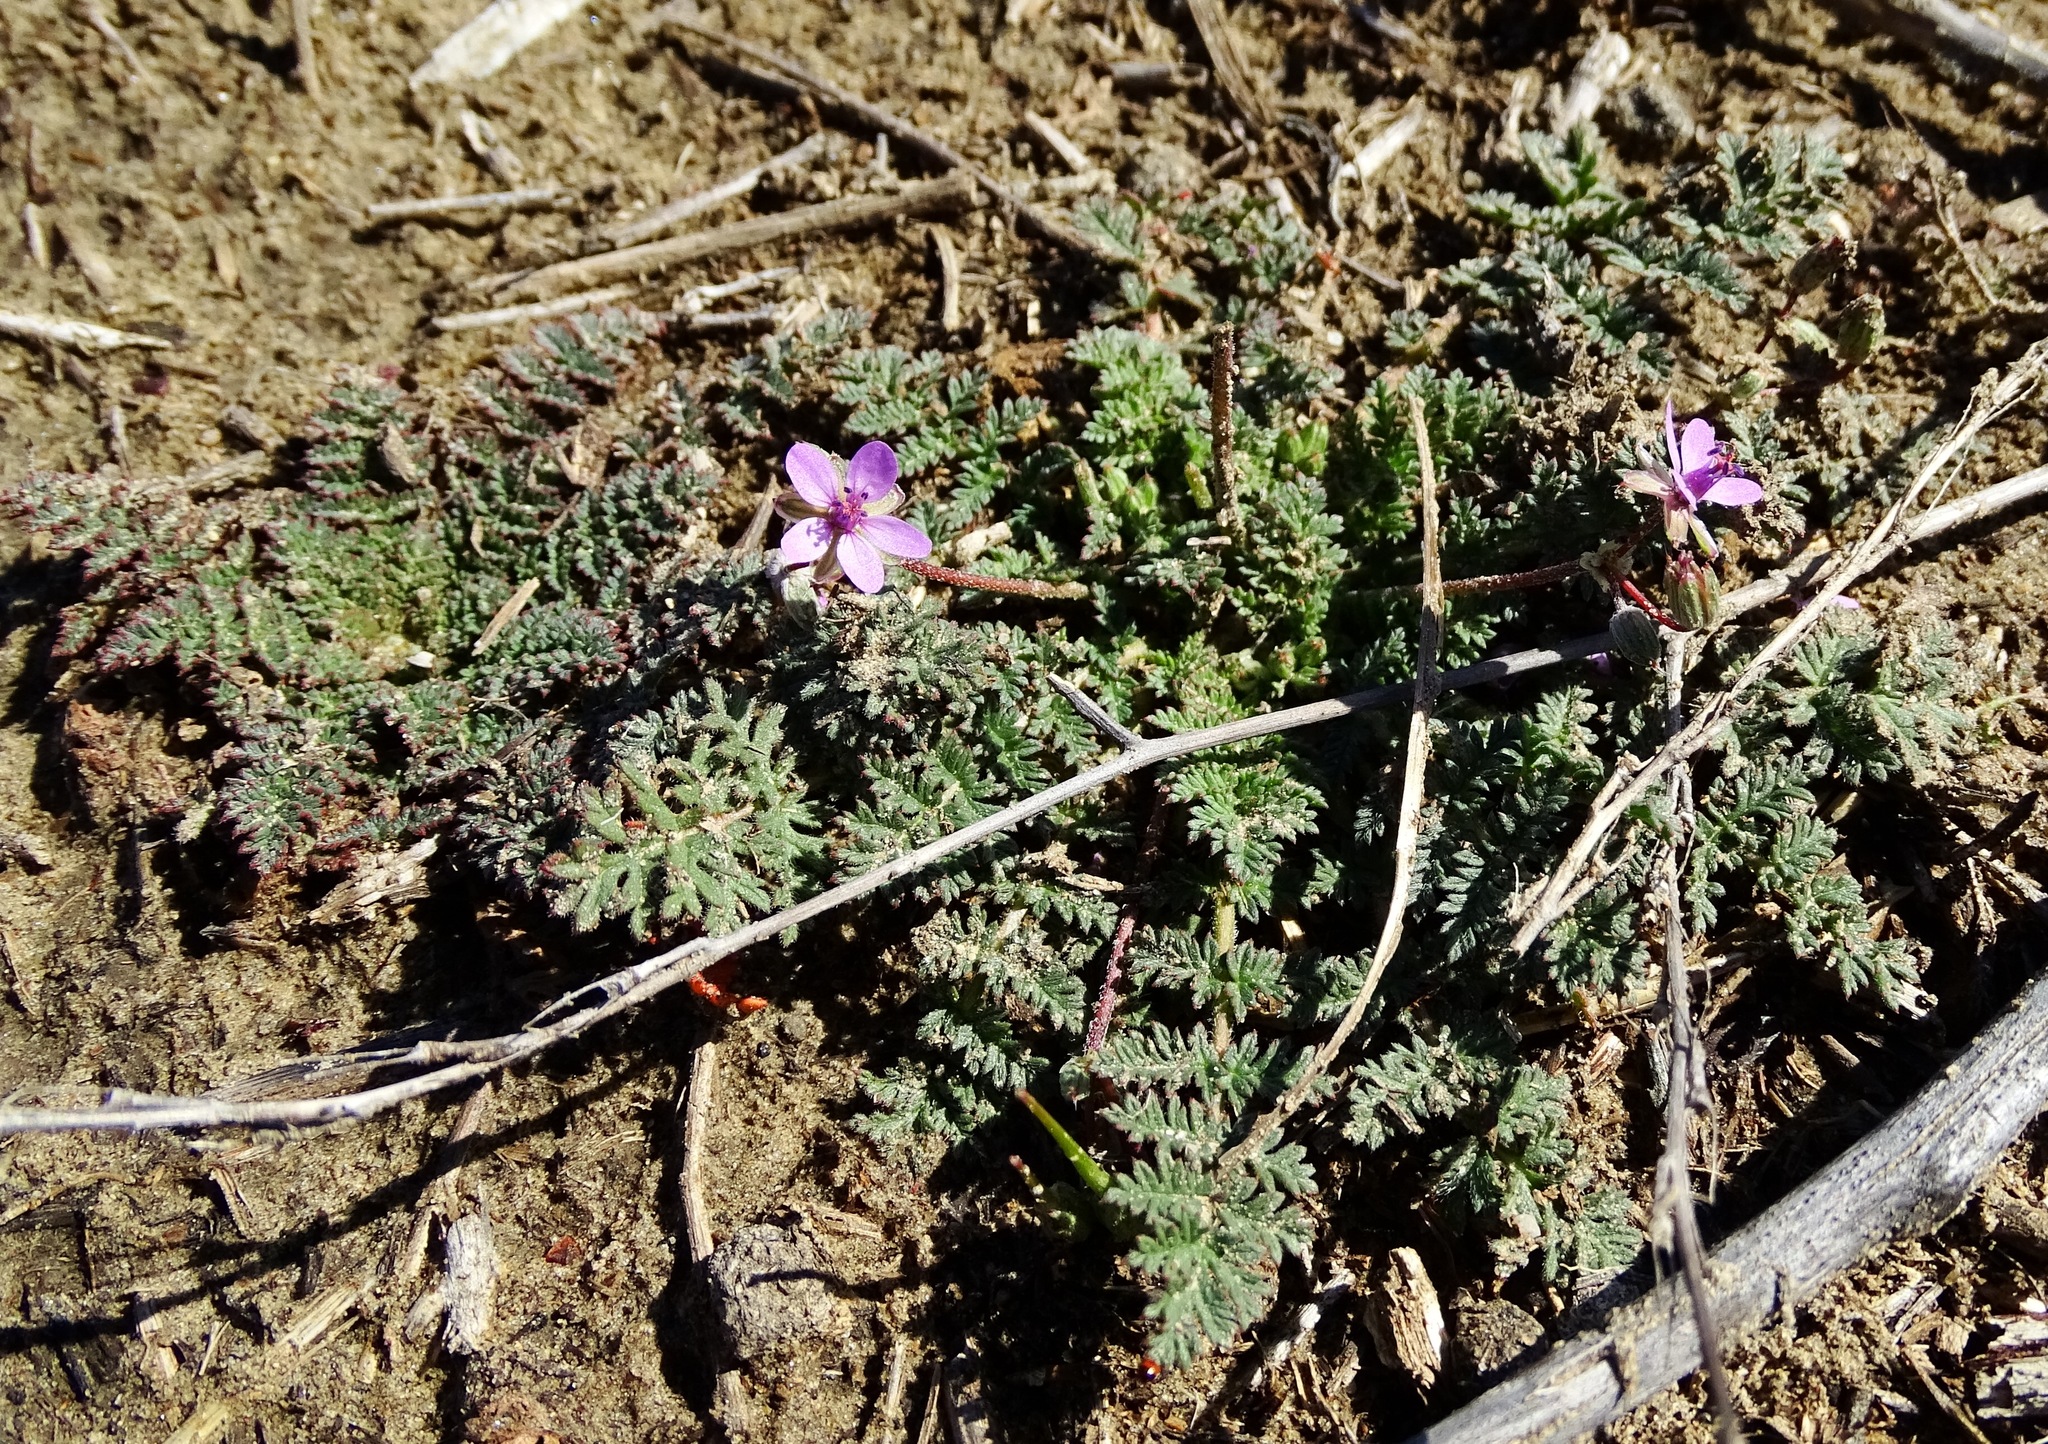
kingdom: Plantae
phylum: Tracheophyta
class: Magnoliopsida
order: Geraniales
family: Geraniaceae
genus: Erodium
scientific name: Erodium cicutarium
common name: Common stork's-bill
